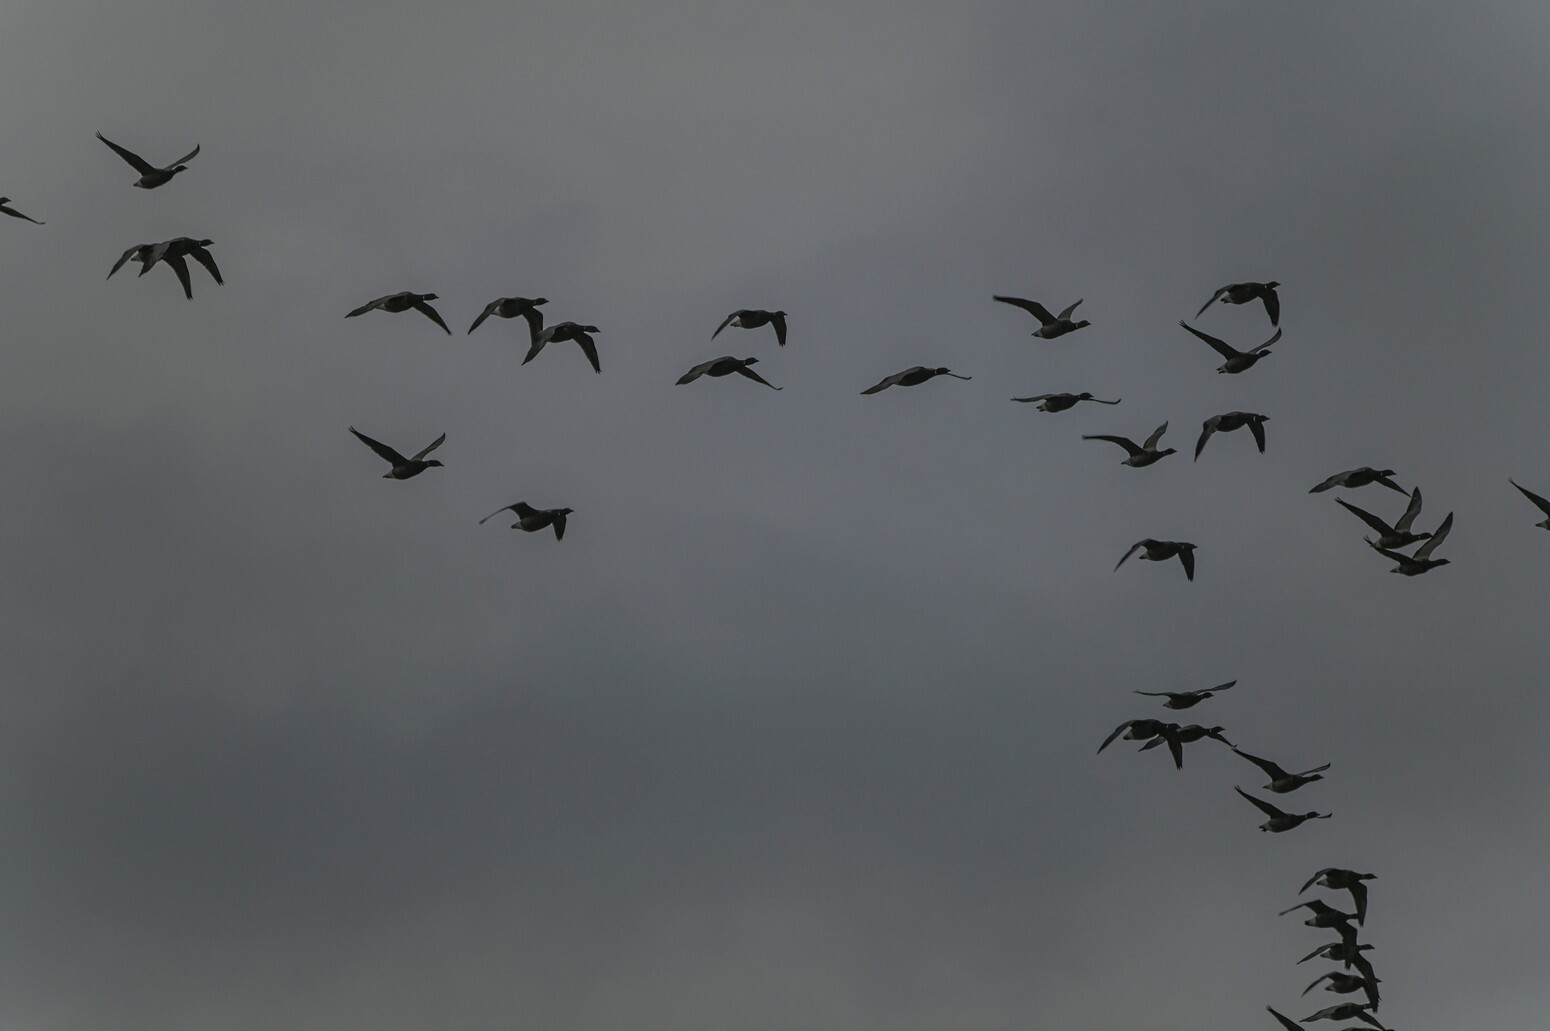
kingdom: Animalia
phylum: Chordata
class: Aves
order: Anseriformes
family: Anatidae
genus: Branta
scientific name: Branta bernicla
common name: Brant goose
